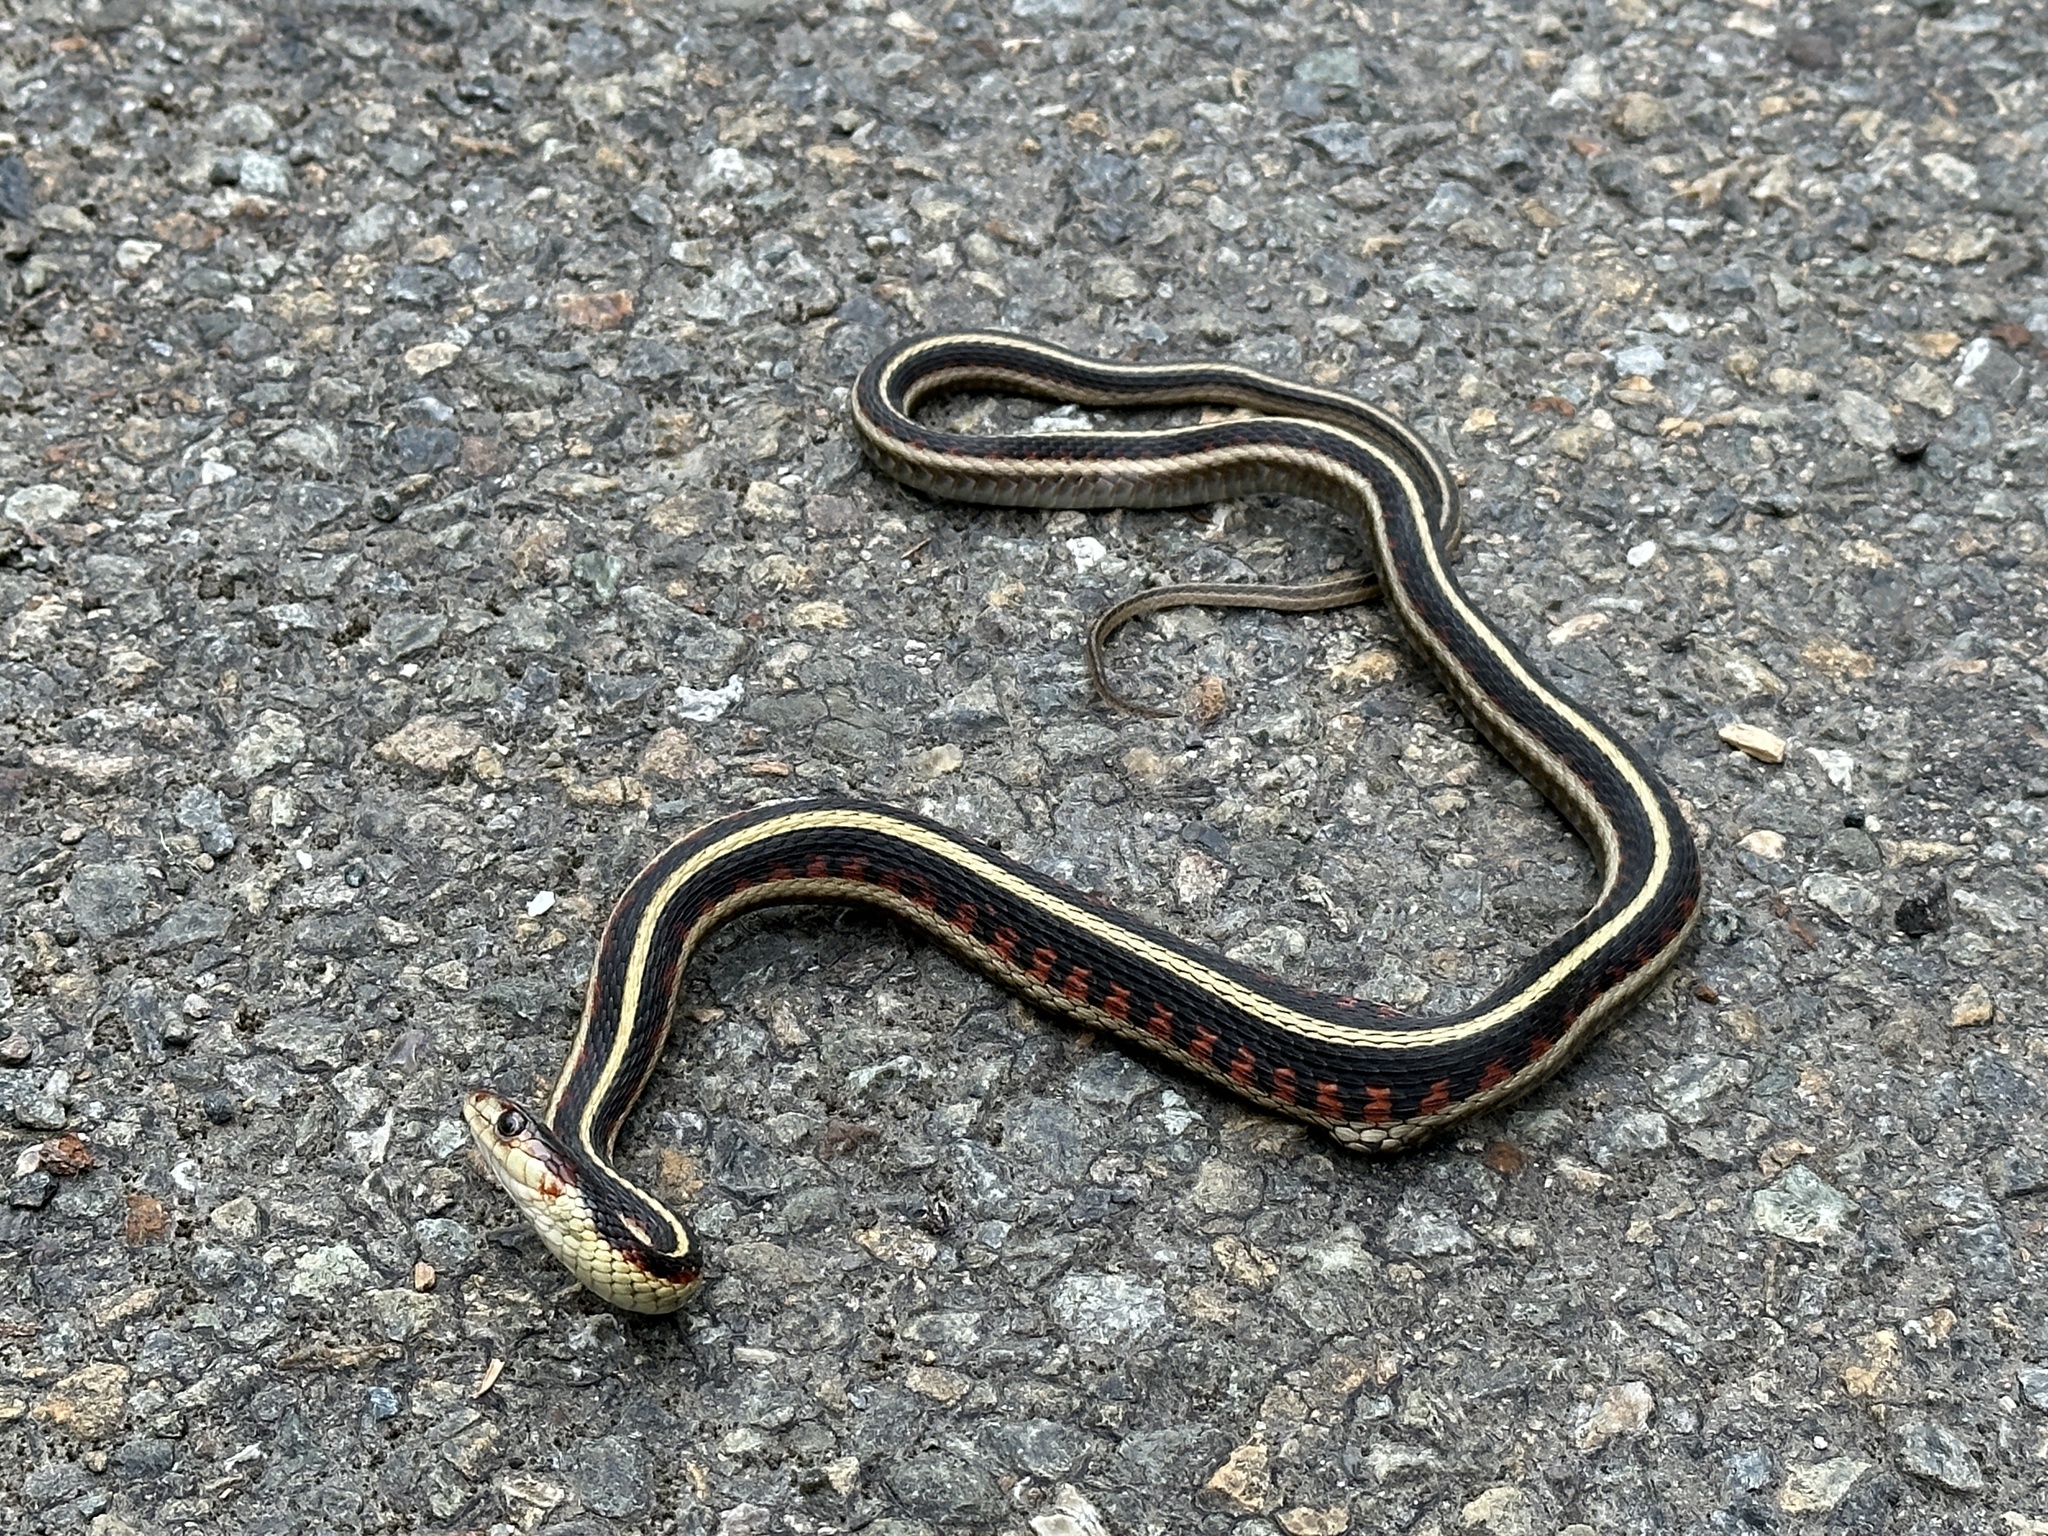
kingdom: Animalia
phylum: Chordata
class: Squamata
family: Colubridae
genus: Thamnophis
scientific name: Thamnophis sirtalis
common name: Common garter snake
